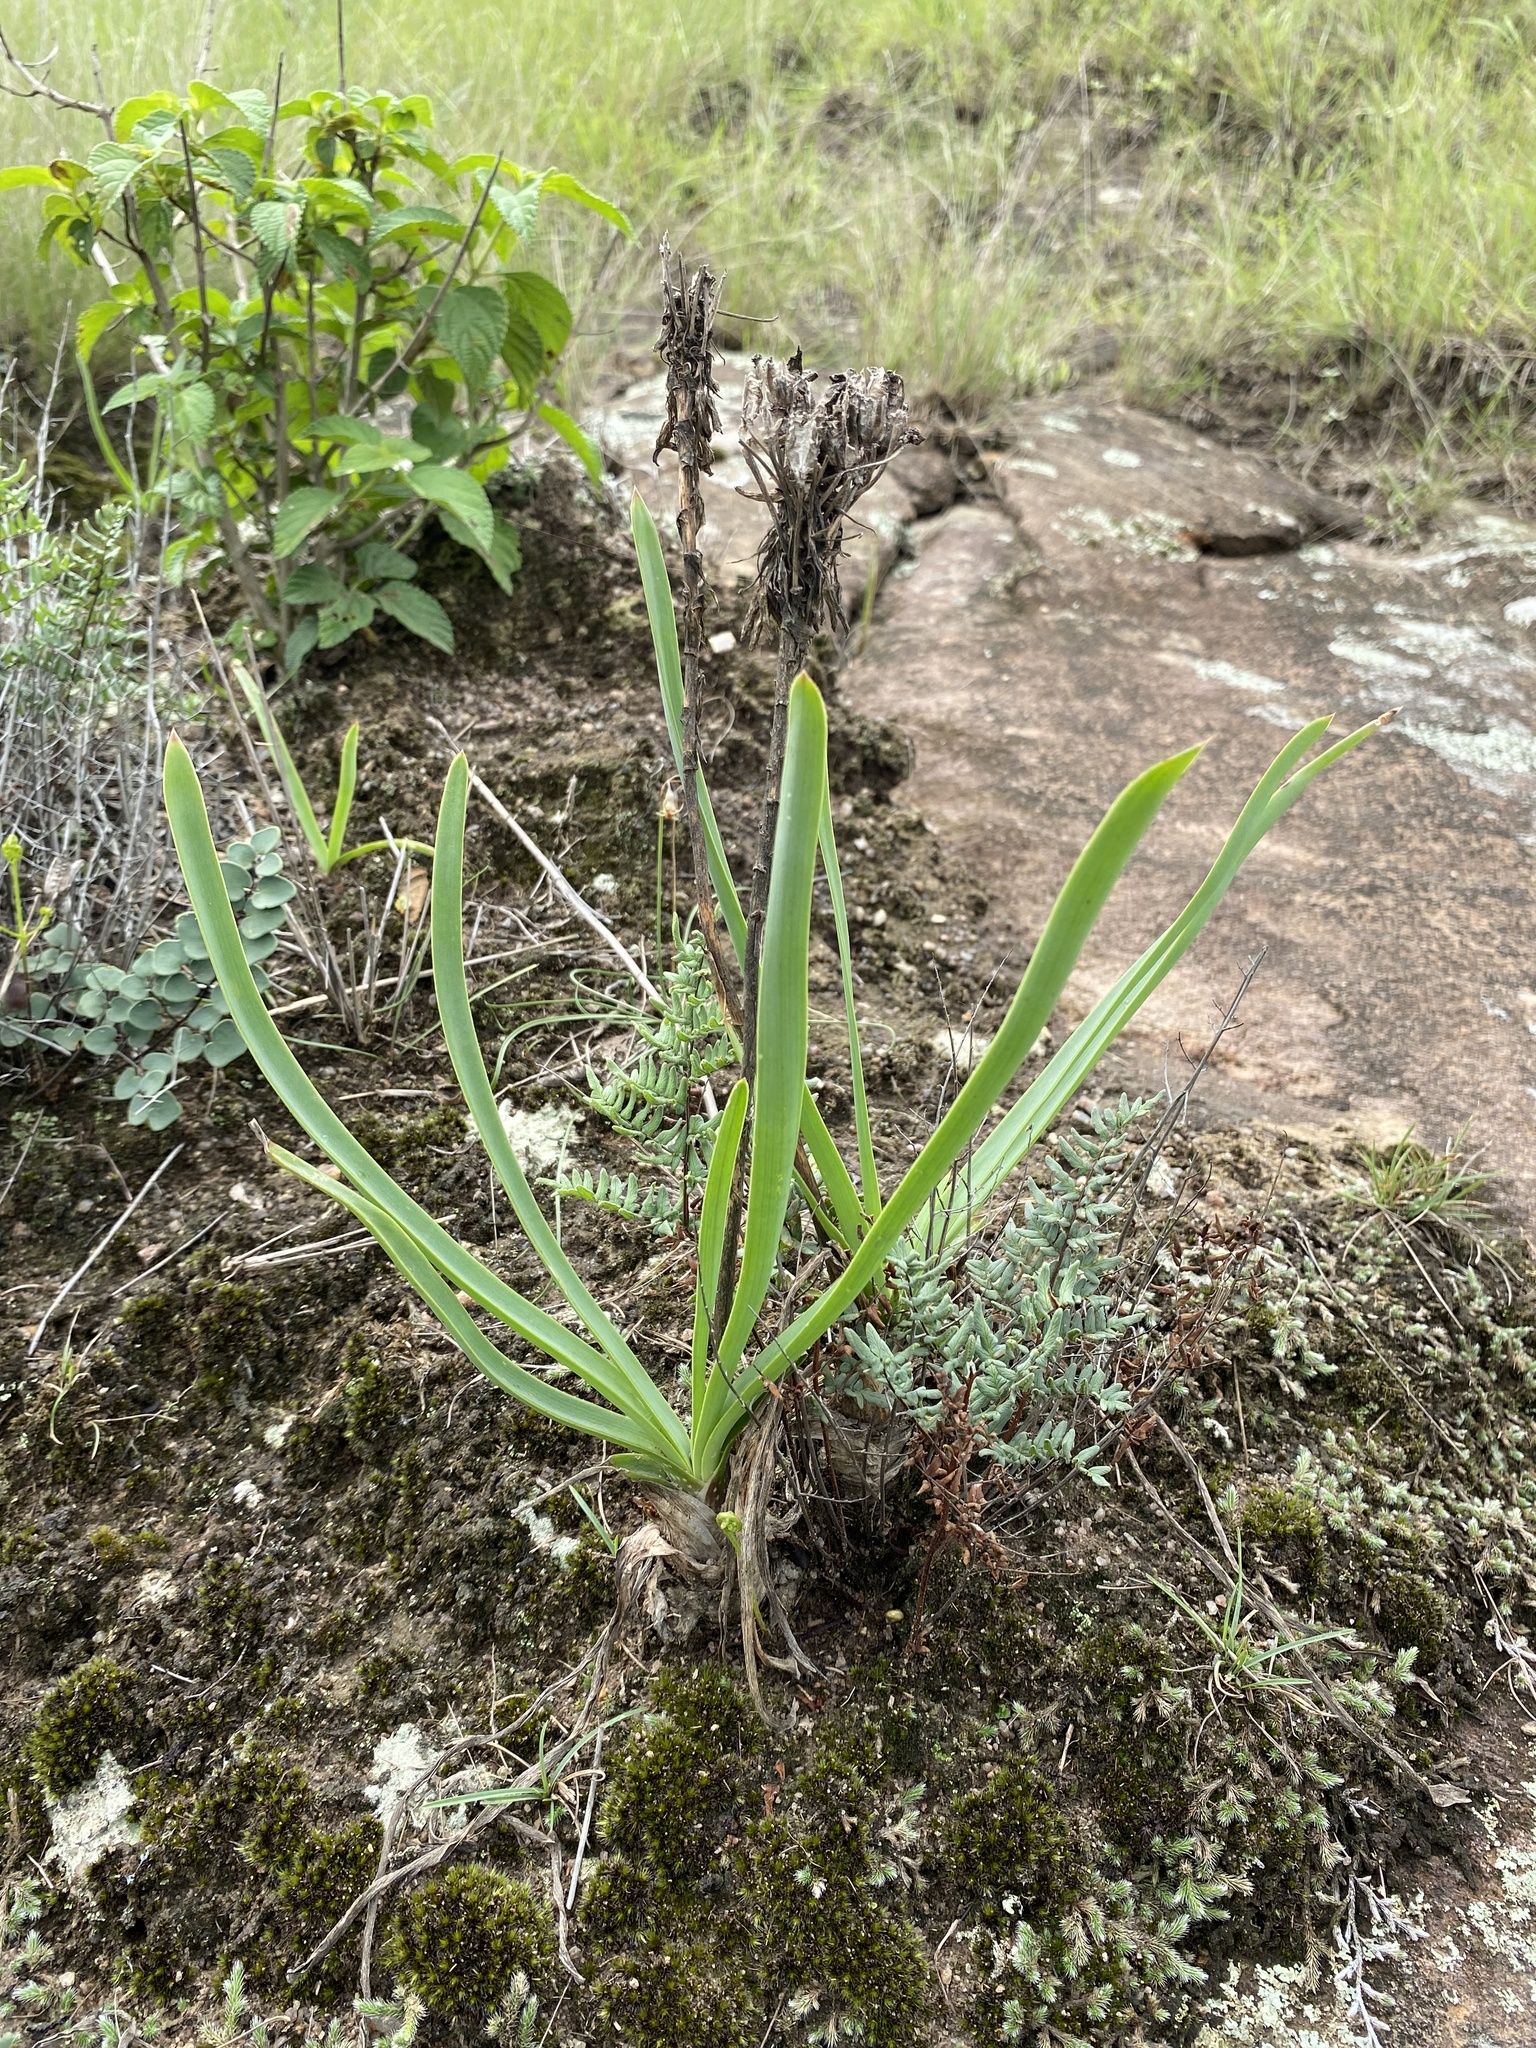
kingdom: Plantae
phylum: Tracheophyta
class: Liliopsida
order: Asparagales
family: Asphodelaceae
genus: Aloe
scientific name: Aloe linearifolia
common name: Dwarf yellow grass aloe
